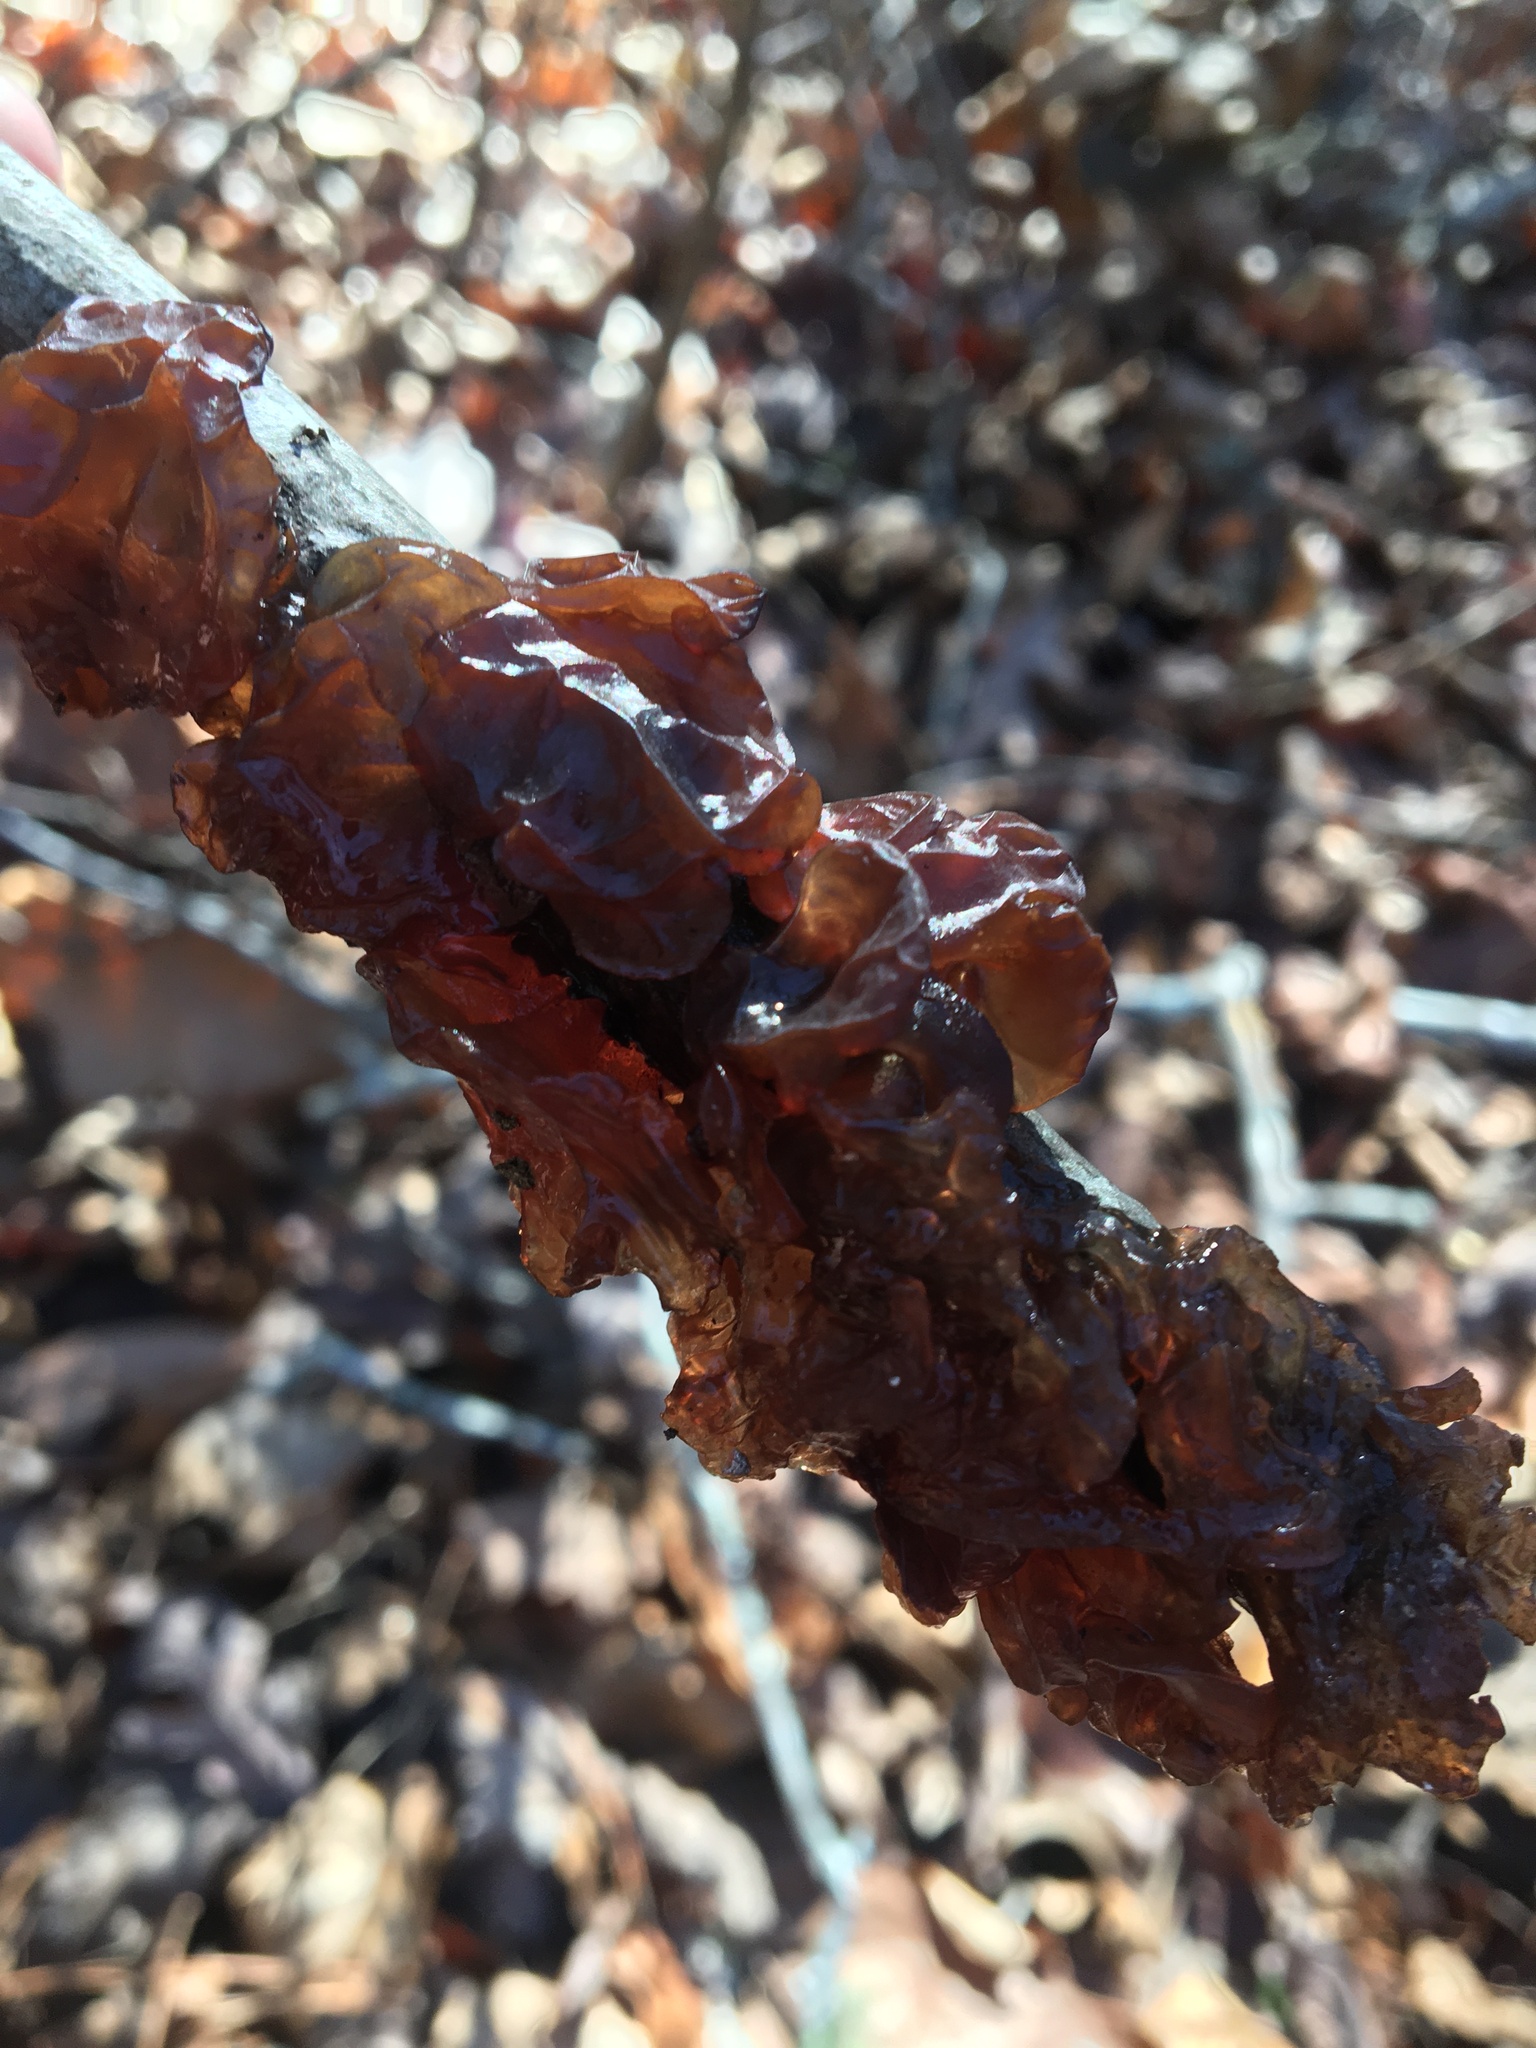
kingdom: Fungi
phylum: Basidiomycota
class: Agaricomycetes
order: Auriculariales
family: Auriculariaceae
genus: Exidia
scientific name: Exidia
